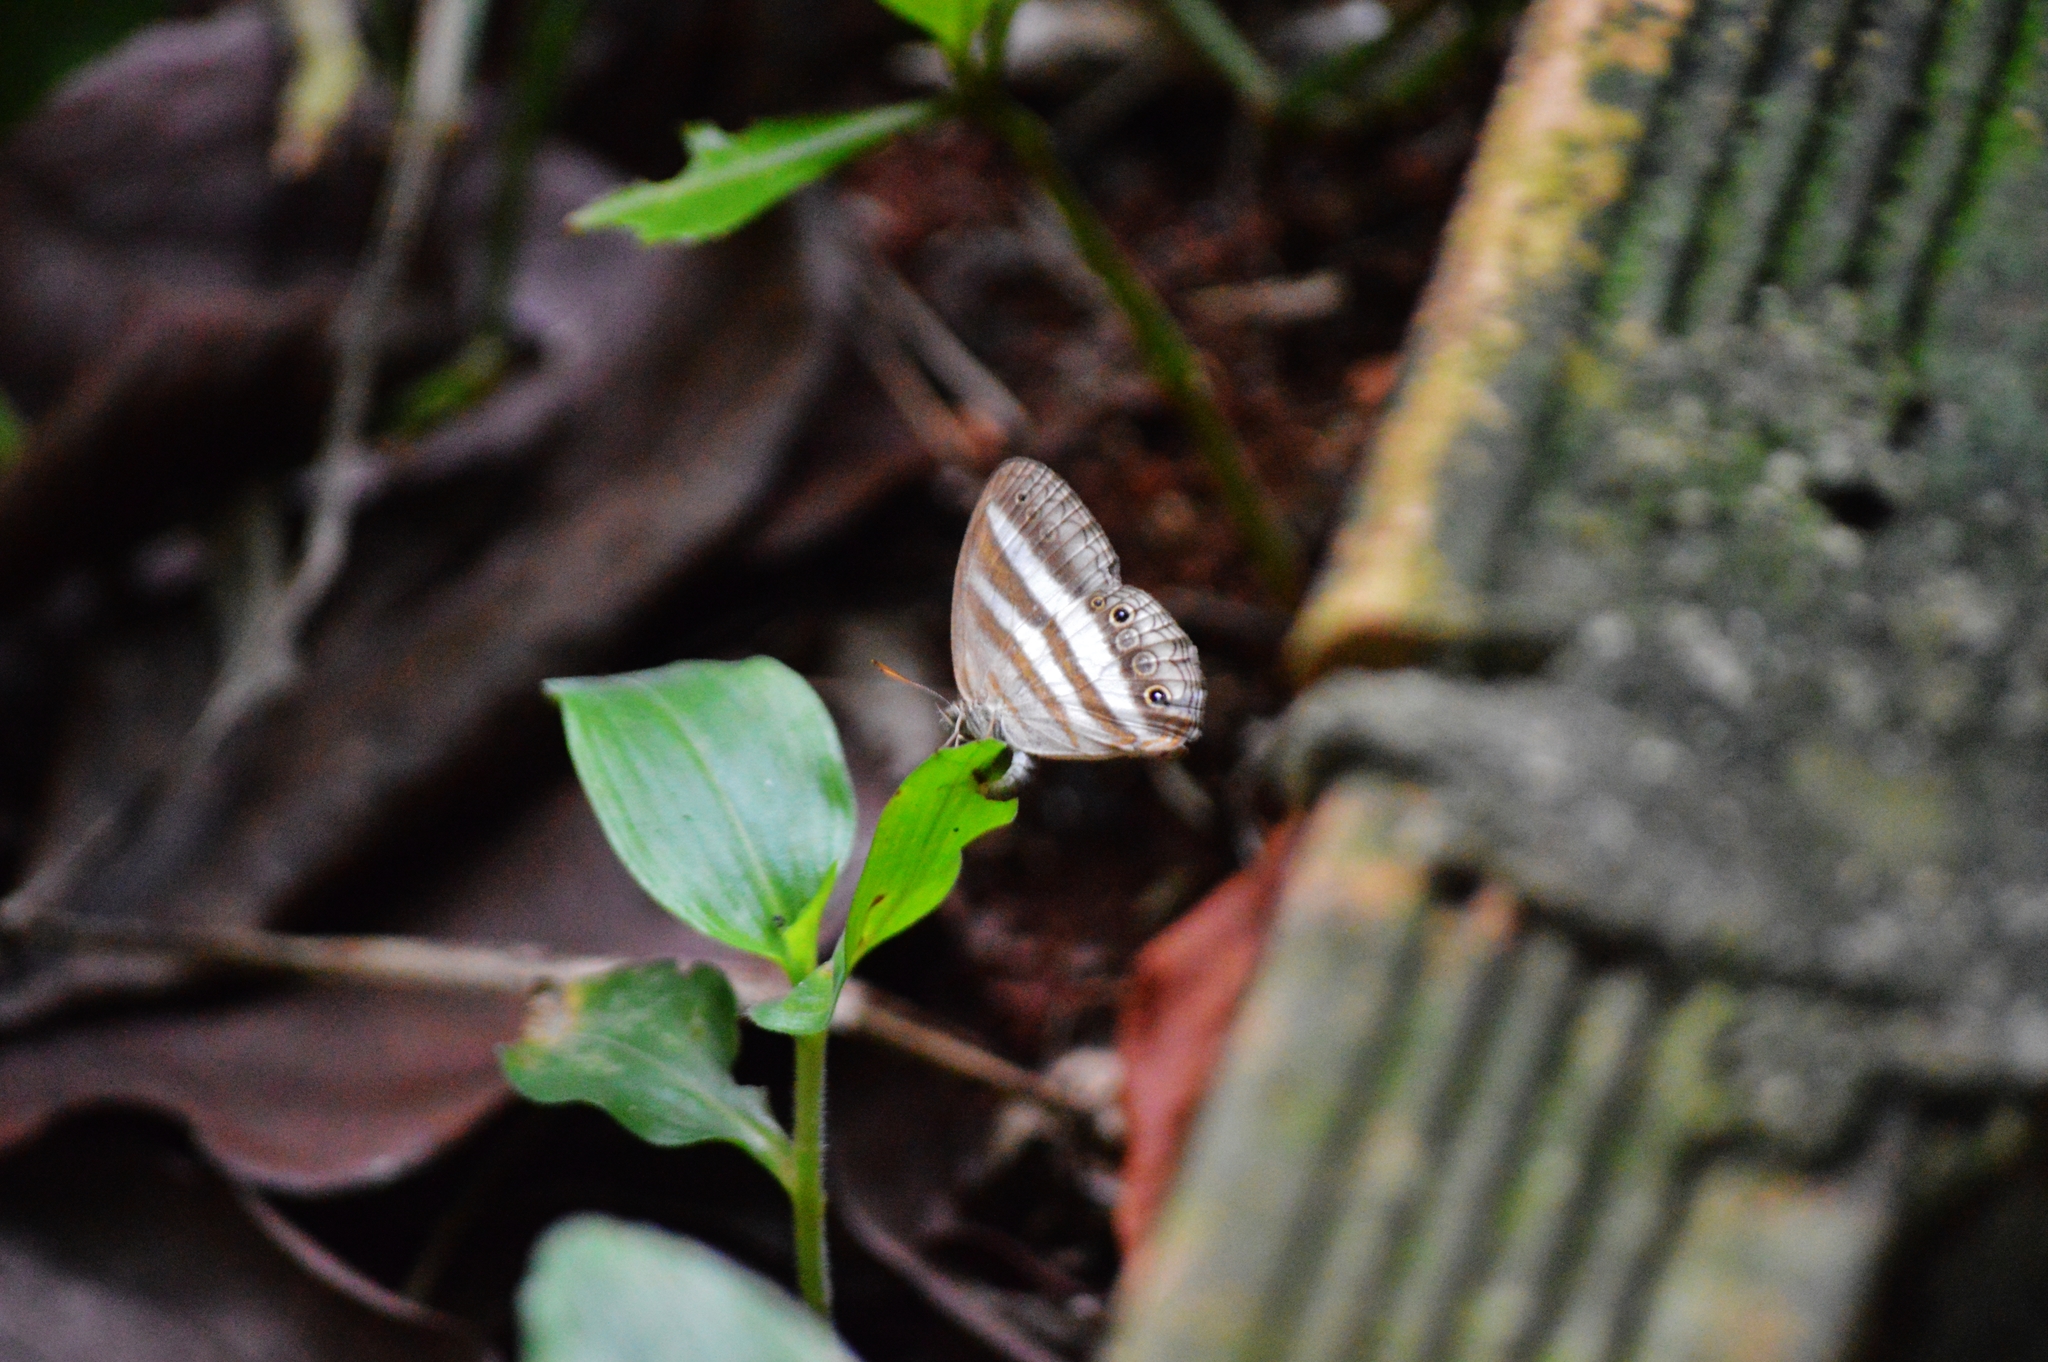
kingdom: Animalia
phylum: Arthropoda
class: Insecta
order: Lepidoptera
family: Nymphalidae
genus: Pareuptychia
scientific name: Pareuptychia summandosa
